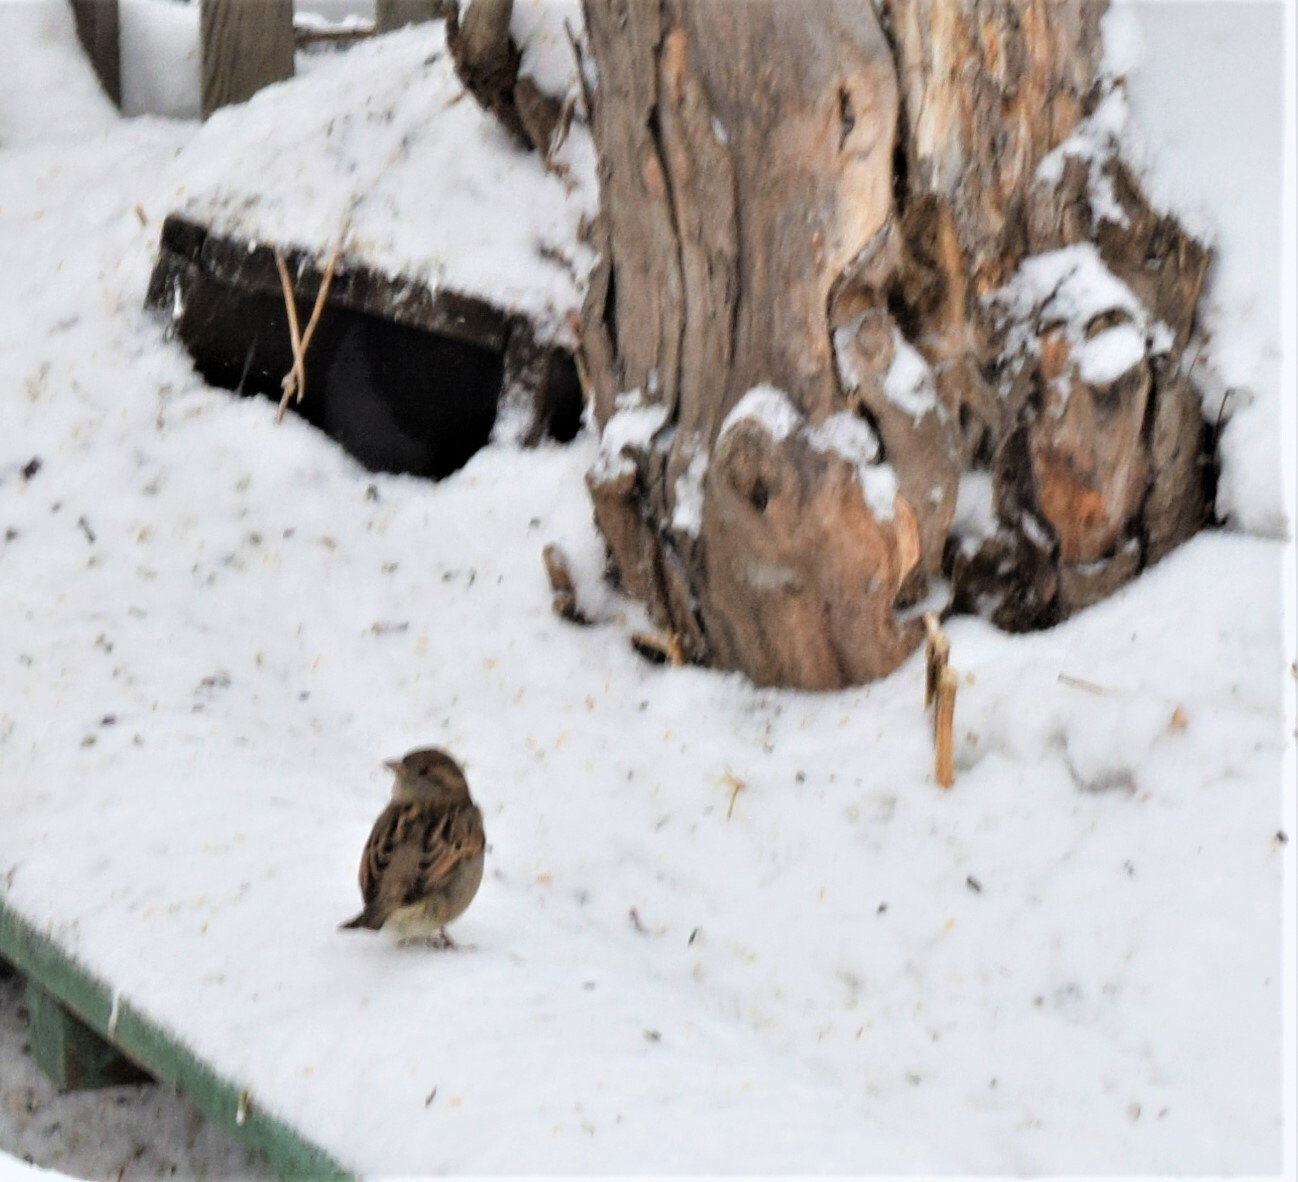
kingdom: Animalia
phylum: Chordata
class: Aves
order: Passeriformes
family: Passeridae
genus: Passer
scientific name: Passer domesticus
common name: House sparrow
